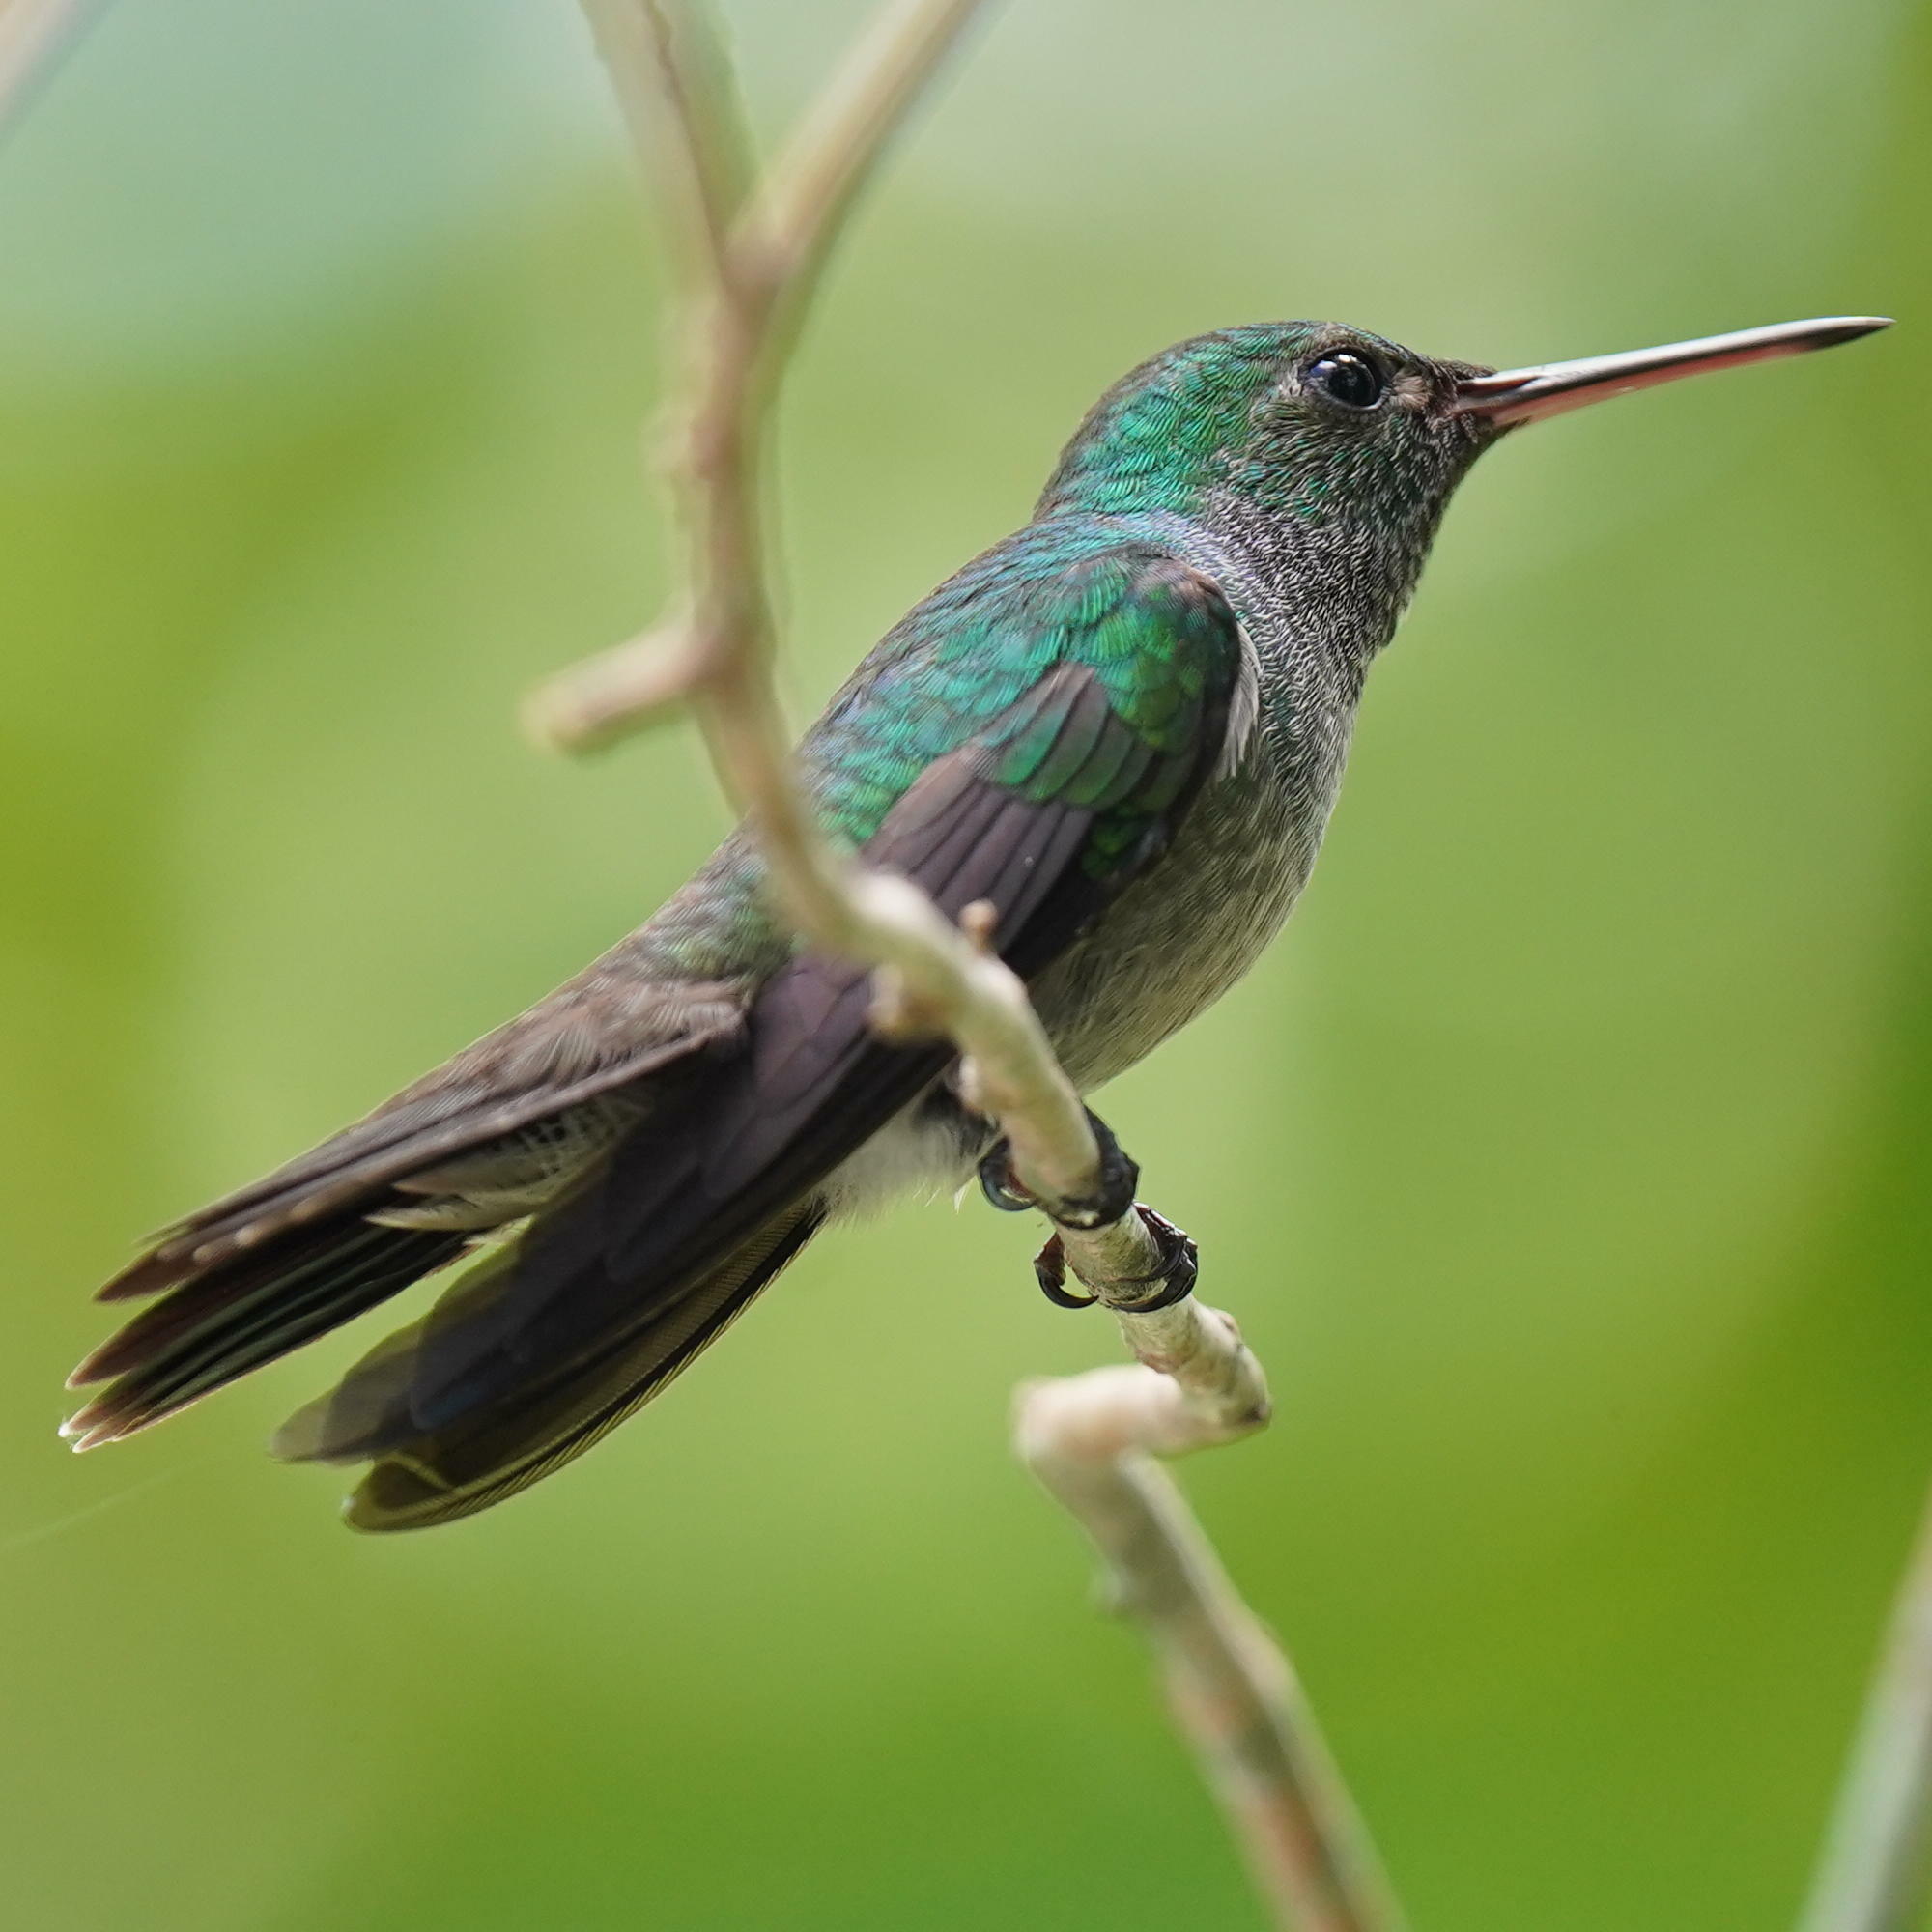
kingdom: Animalia
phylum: Chordata
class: Aves
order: Apodiformes
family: Trochilidae
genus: Polyerata
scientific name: Polyerata amabilis
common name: Blue-chested hummingbird
